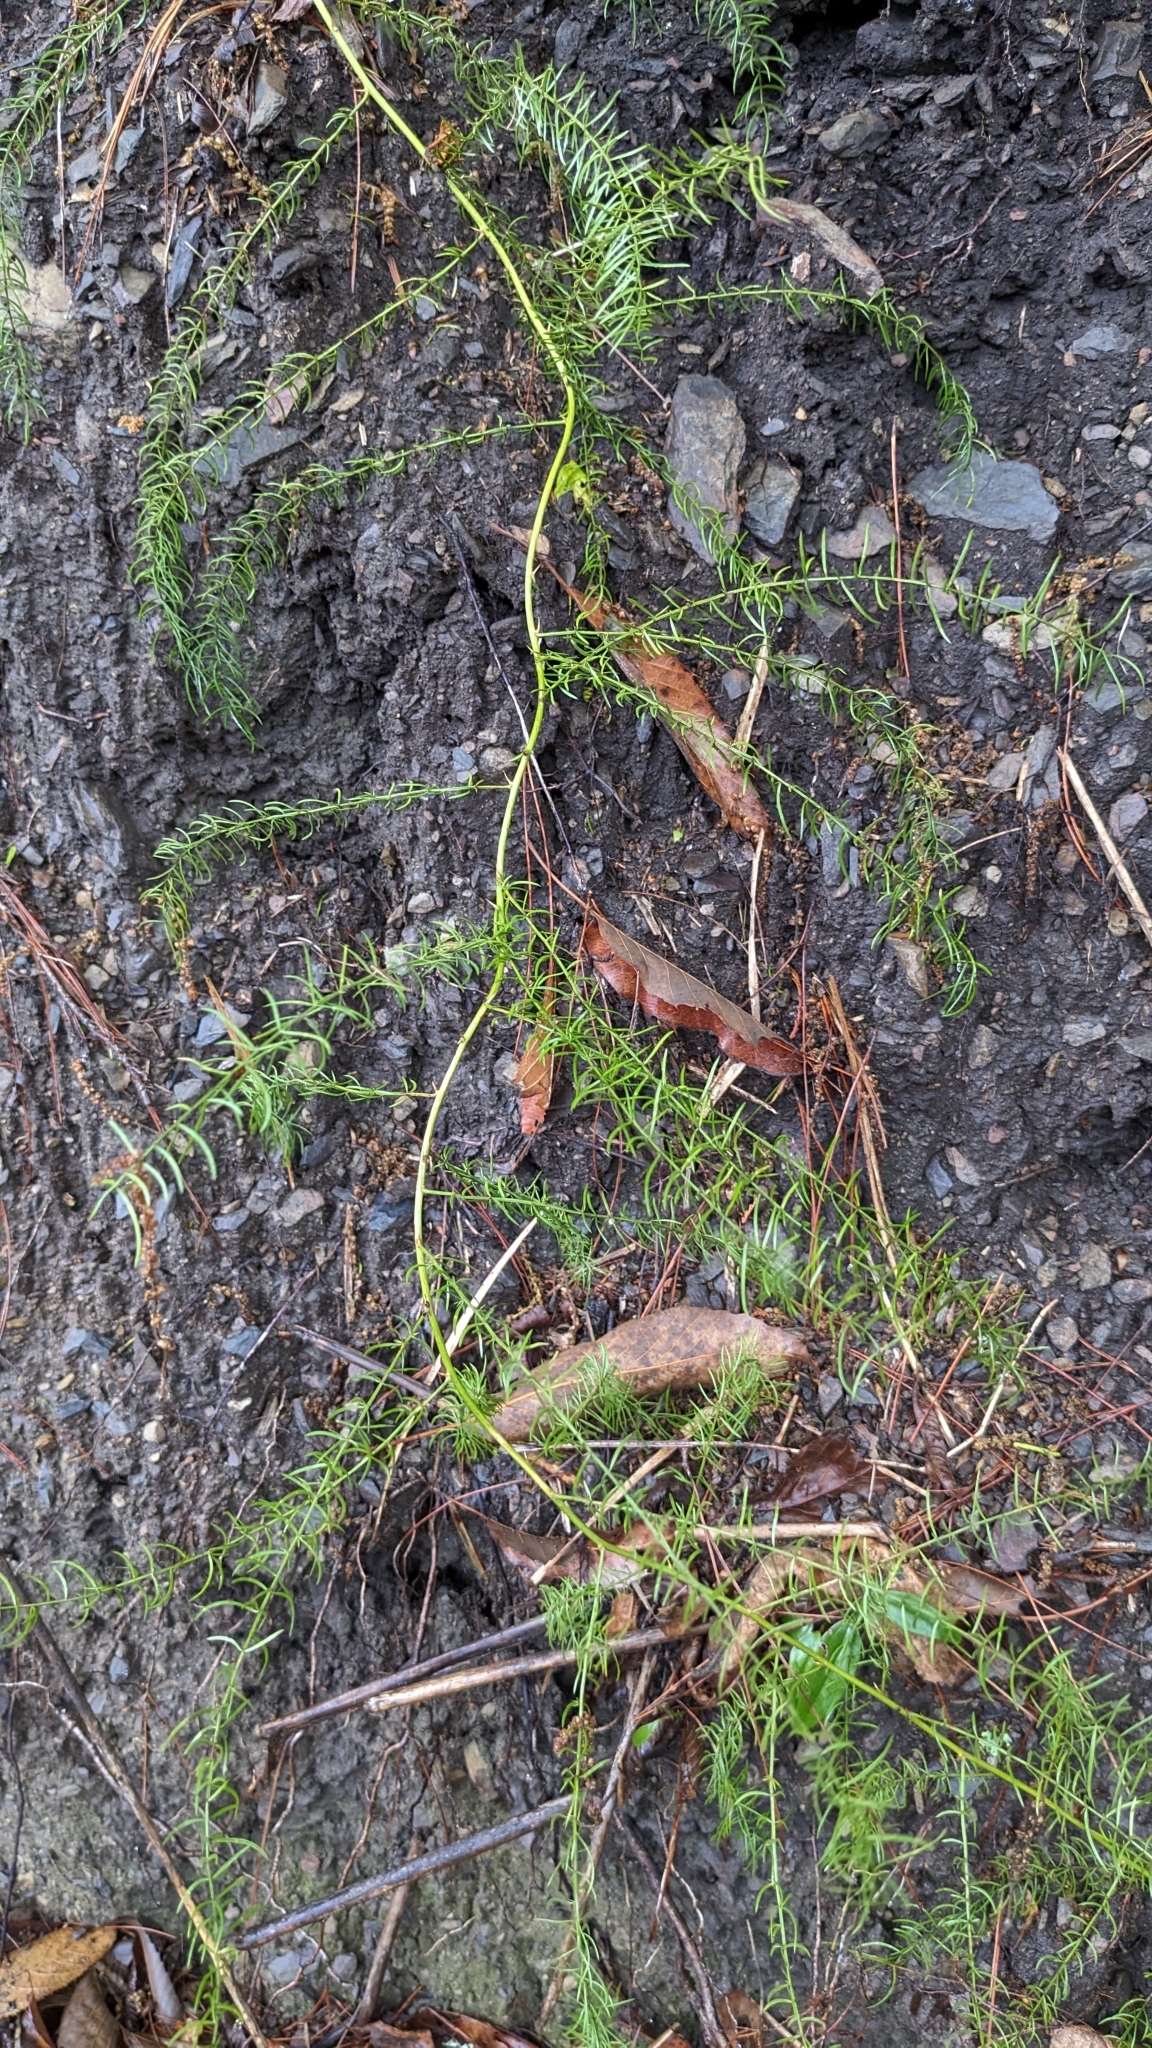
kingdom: Plantae
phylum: Tracheophyta
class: Liliopsida
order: Asparagales
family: Asparagaceae
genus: Asparagus
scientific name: Asparagus cochinchinensis
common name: Chinese asparagus
